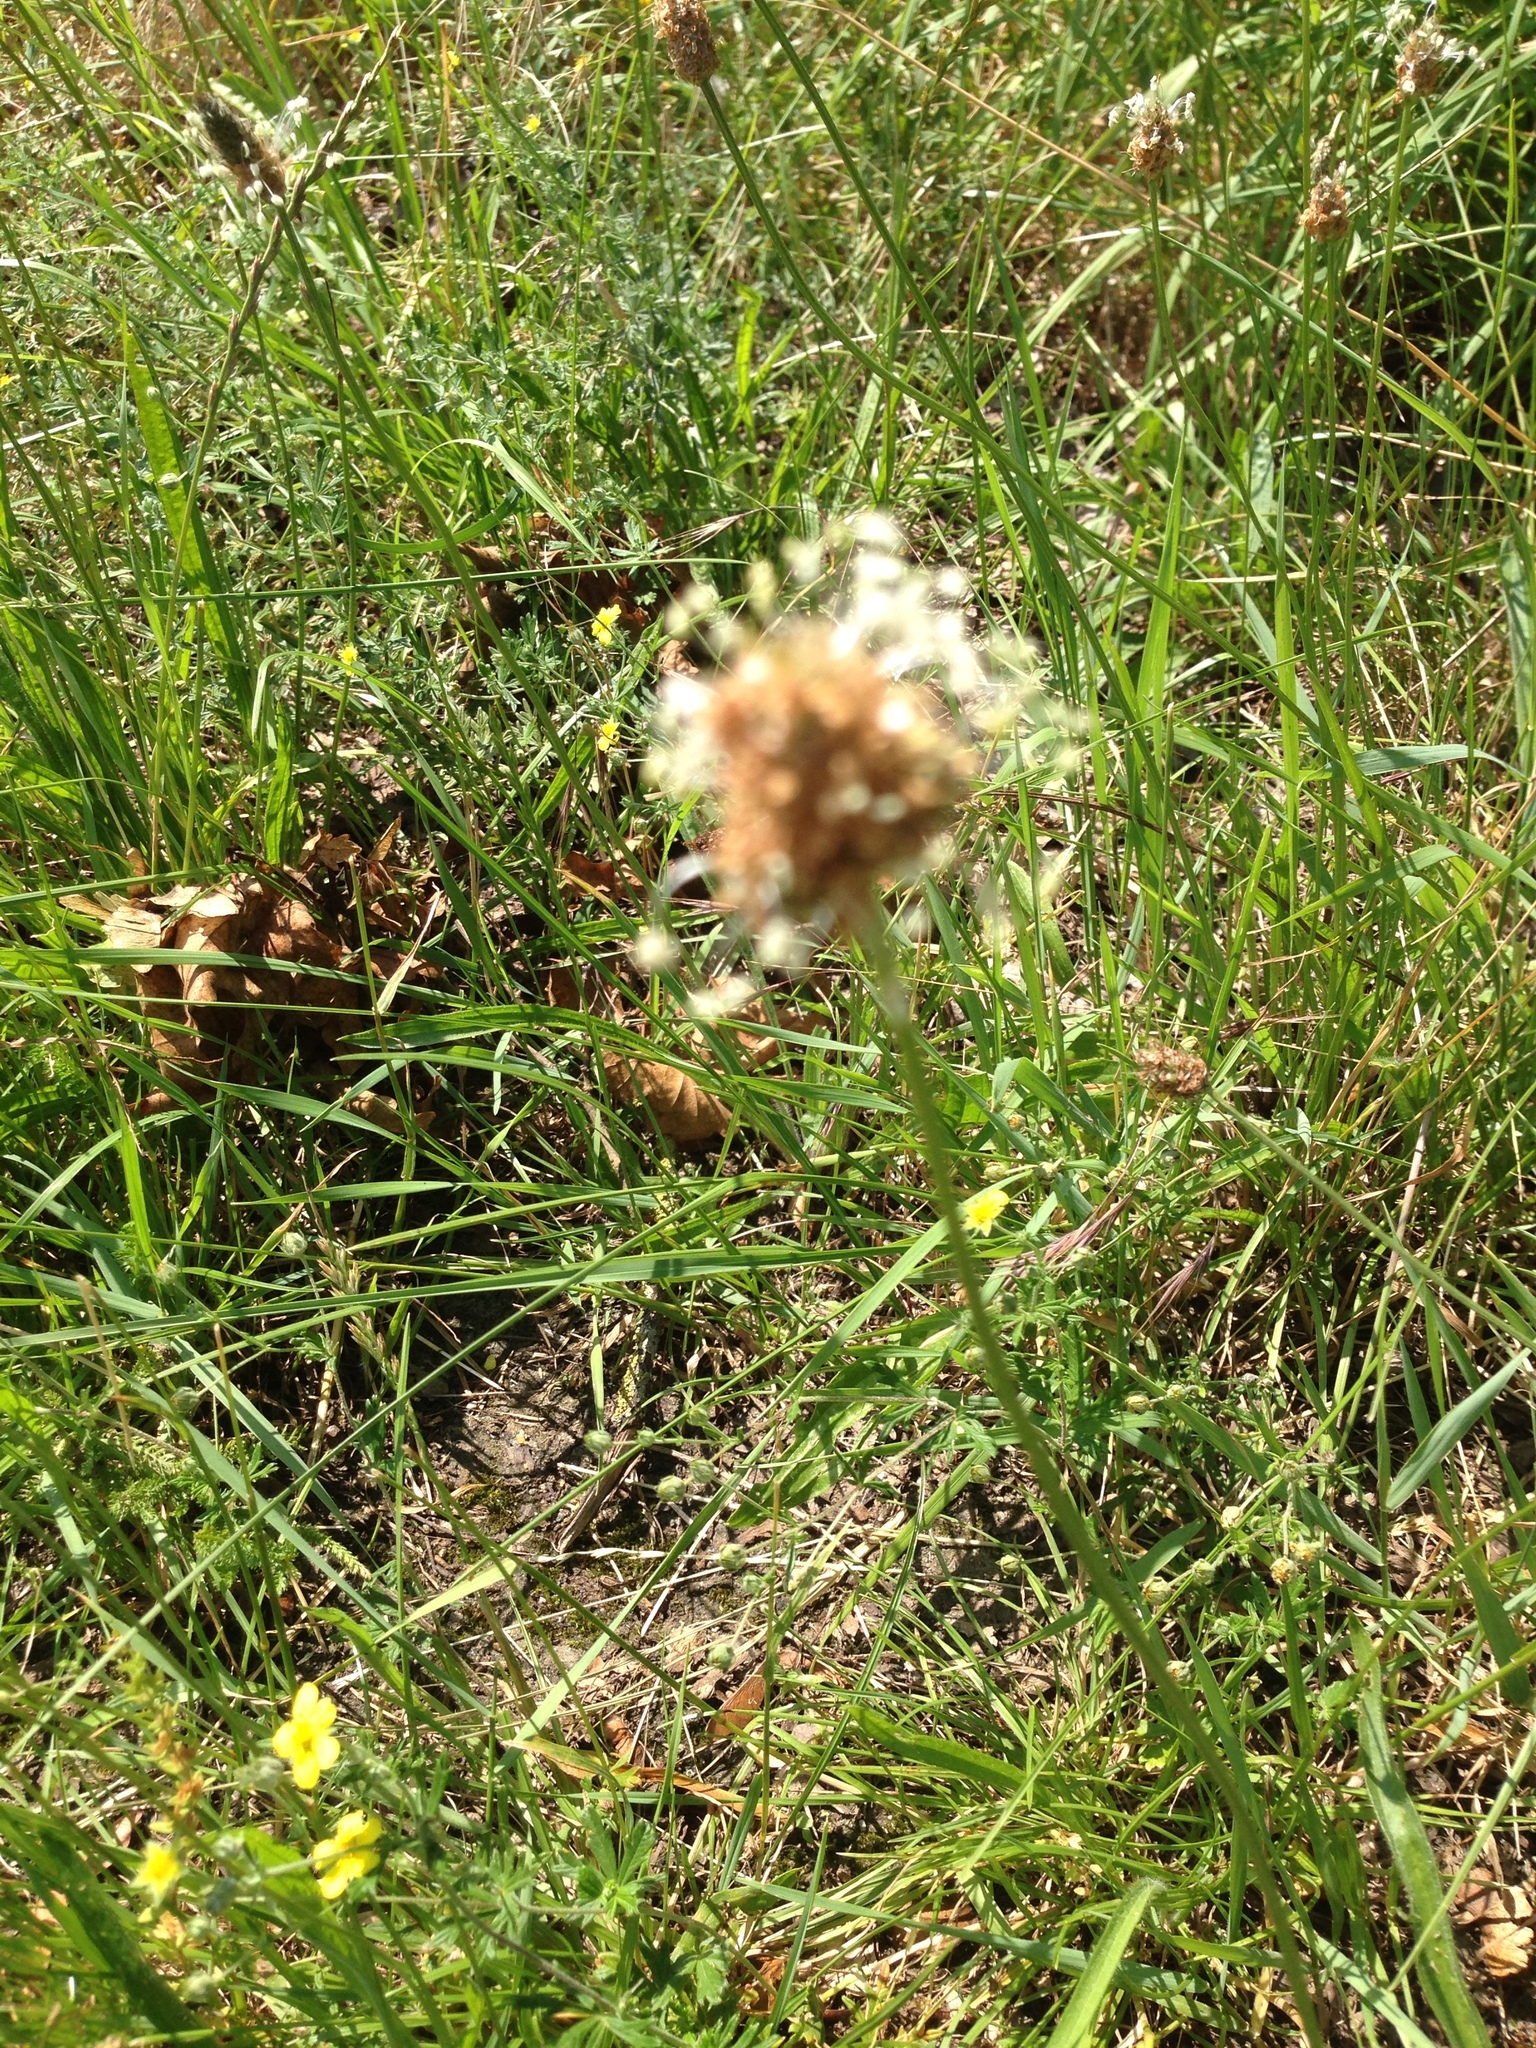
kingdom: Plantae
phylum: Tracheophyta
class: Magnoliopsida
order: Lamiales
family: Plantaginaceae
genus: Plantago
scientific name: Plantago lanceolata
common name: Ribwort plantain
